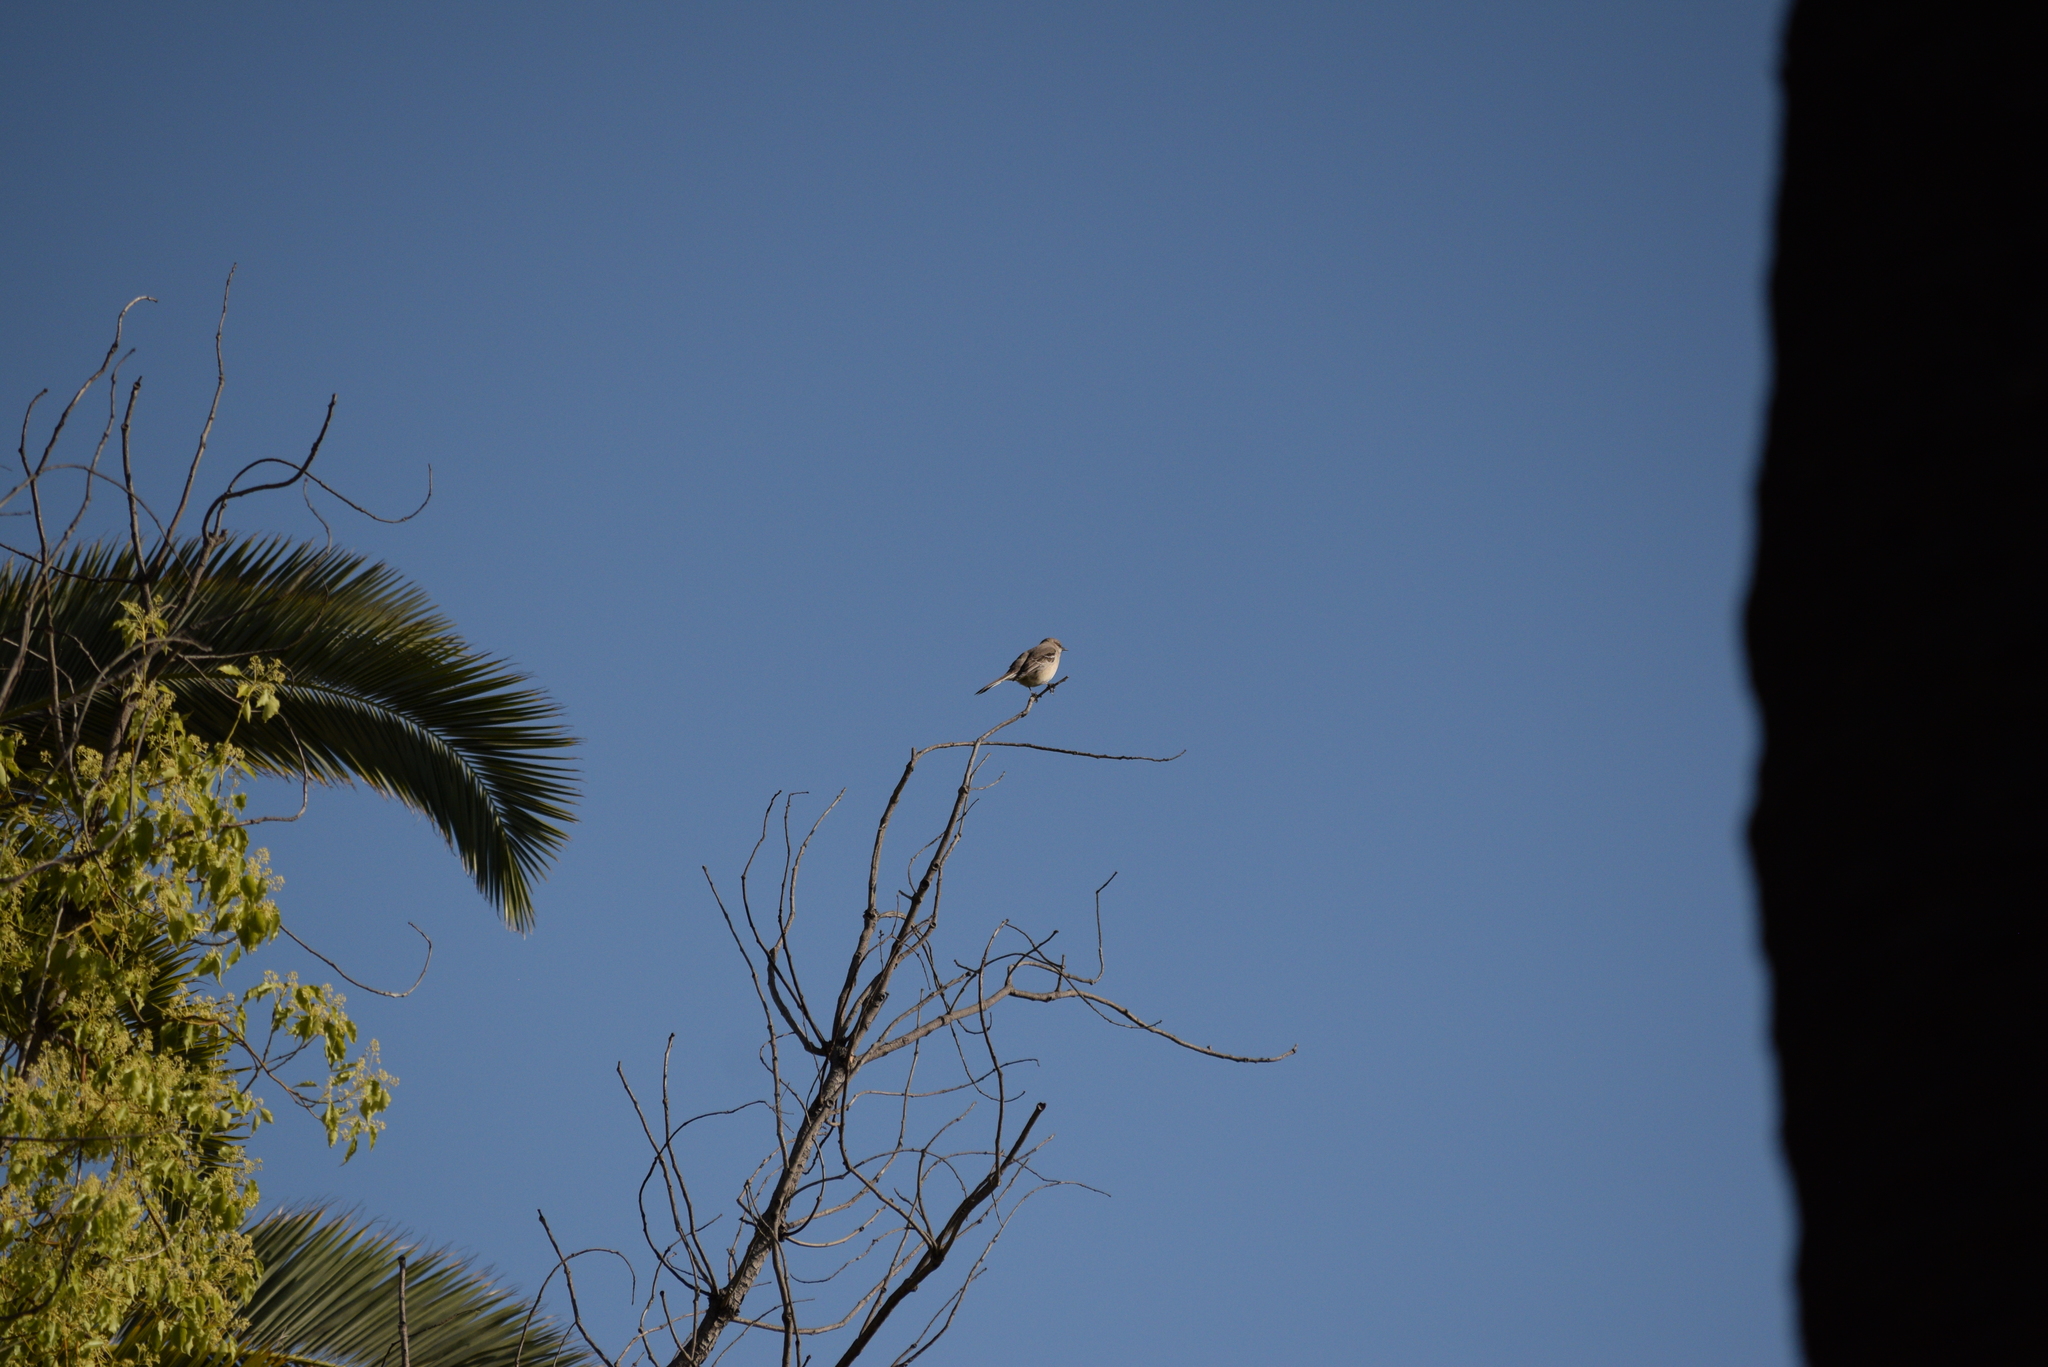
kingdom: Animalia
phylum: Chordata
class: Aves
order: Passeriformes
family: Mimidae
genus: Mimus
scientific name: Mimus polyglottos
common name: Northern mockingbird
